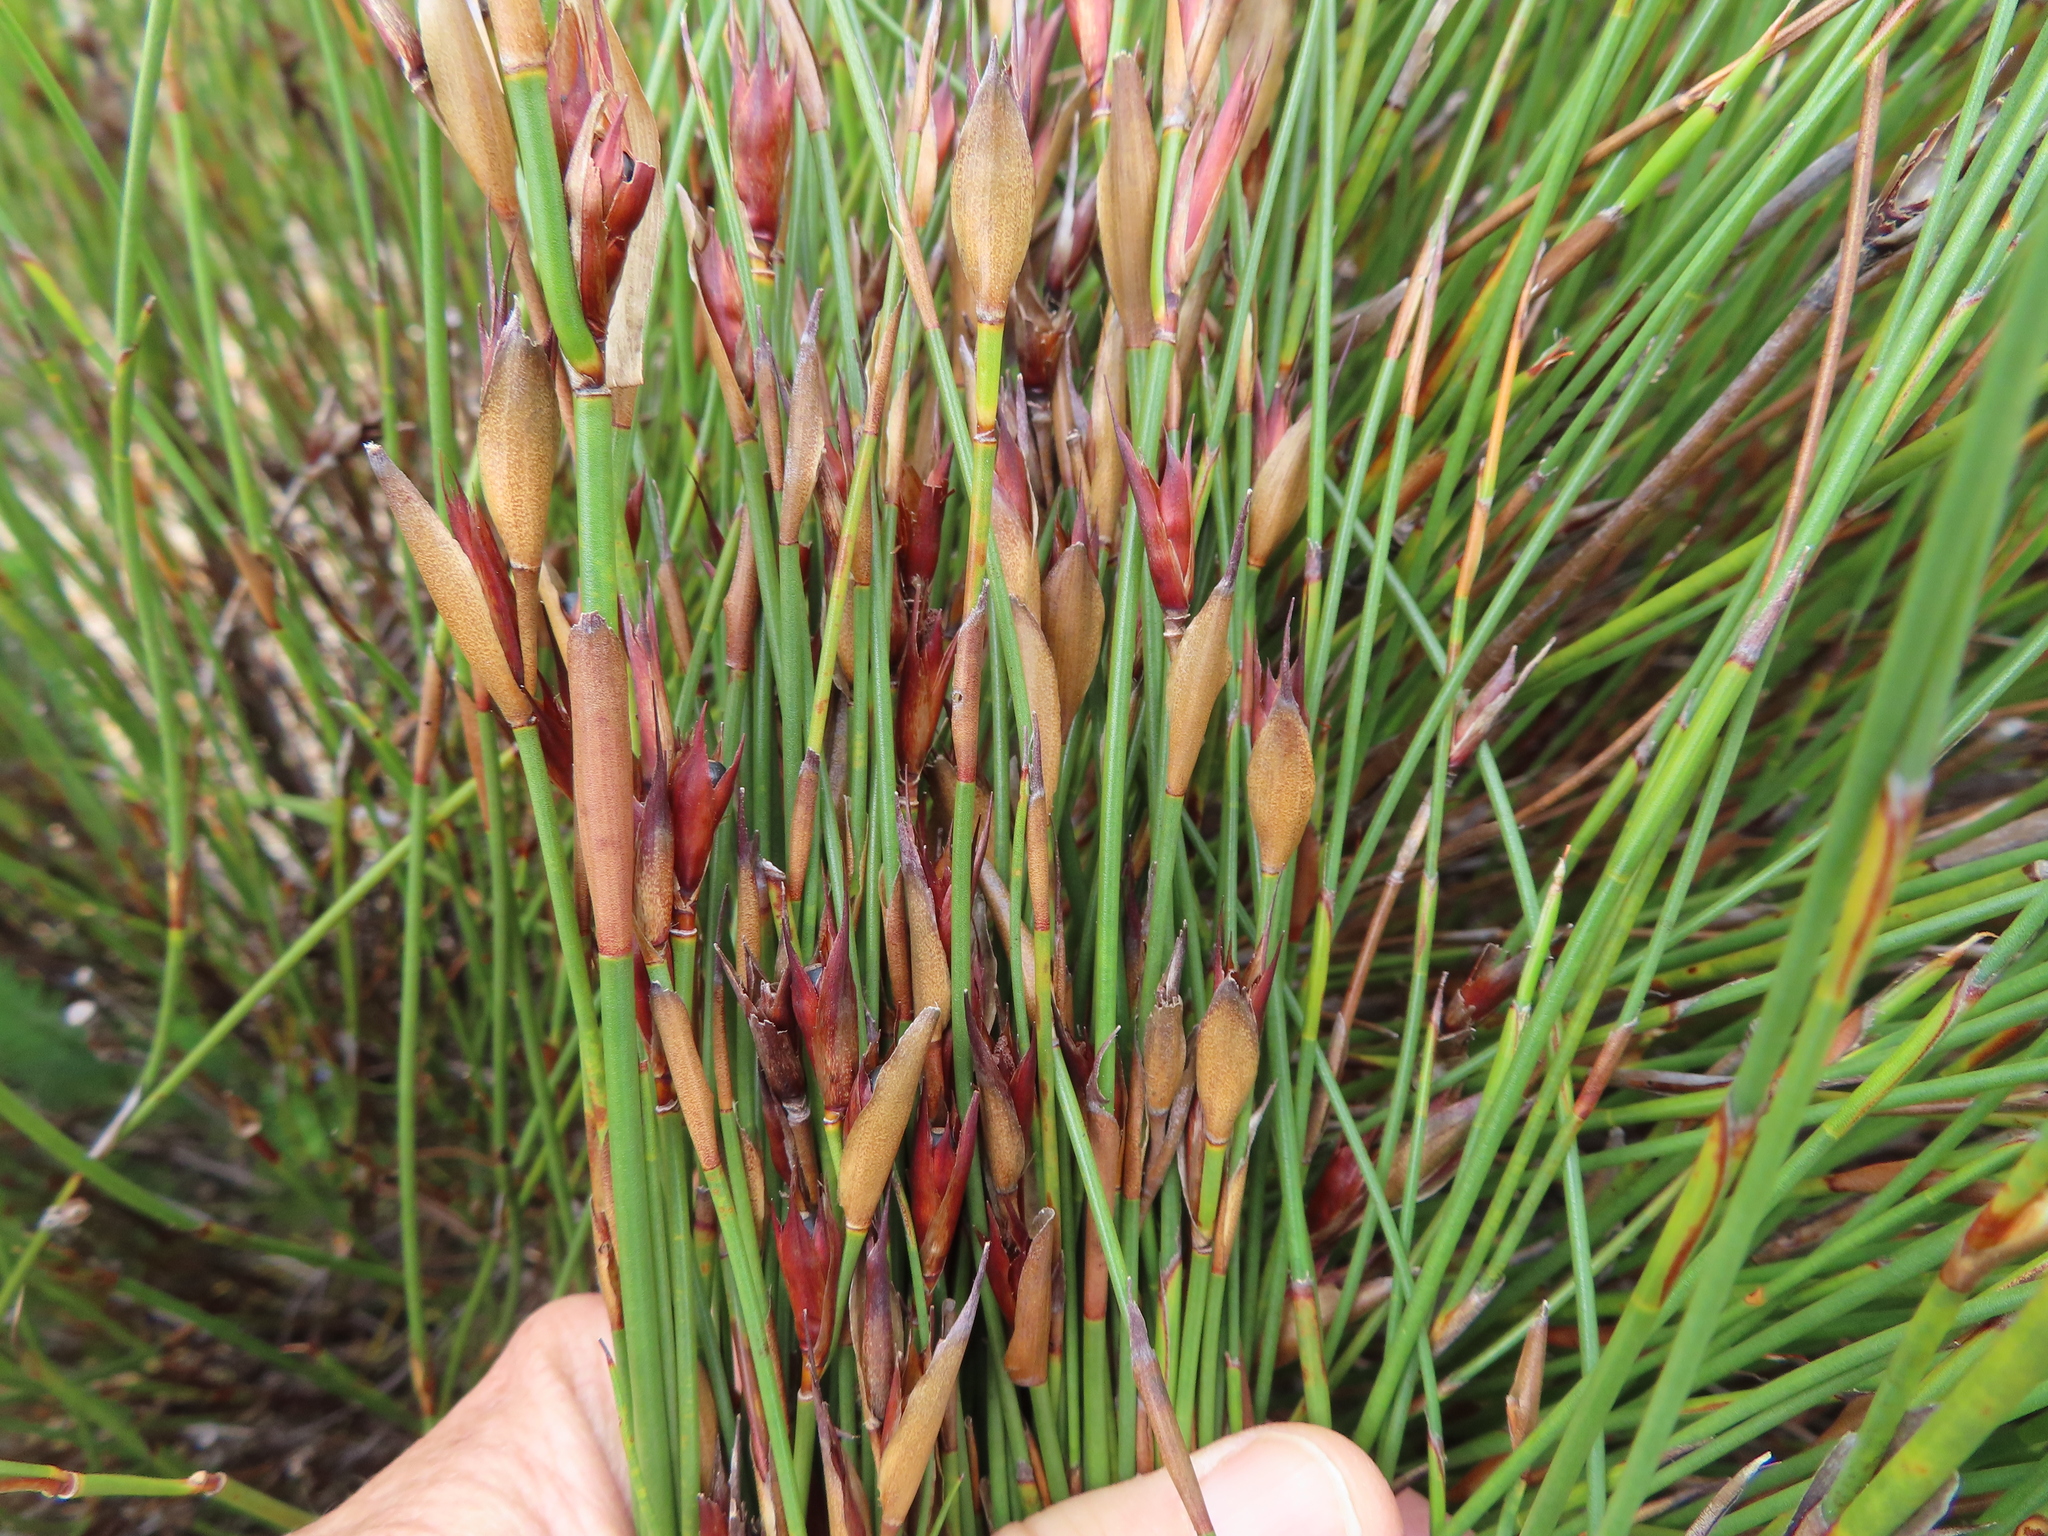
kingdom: Plantae
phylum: Tracheophyta
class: Liliopsida
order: Poales
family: Restionaceae
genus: Willdenowia
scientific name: Willdenowia teres
